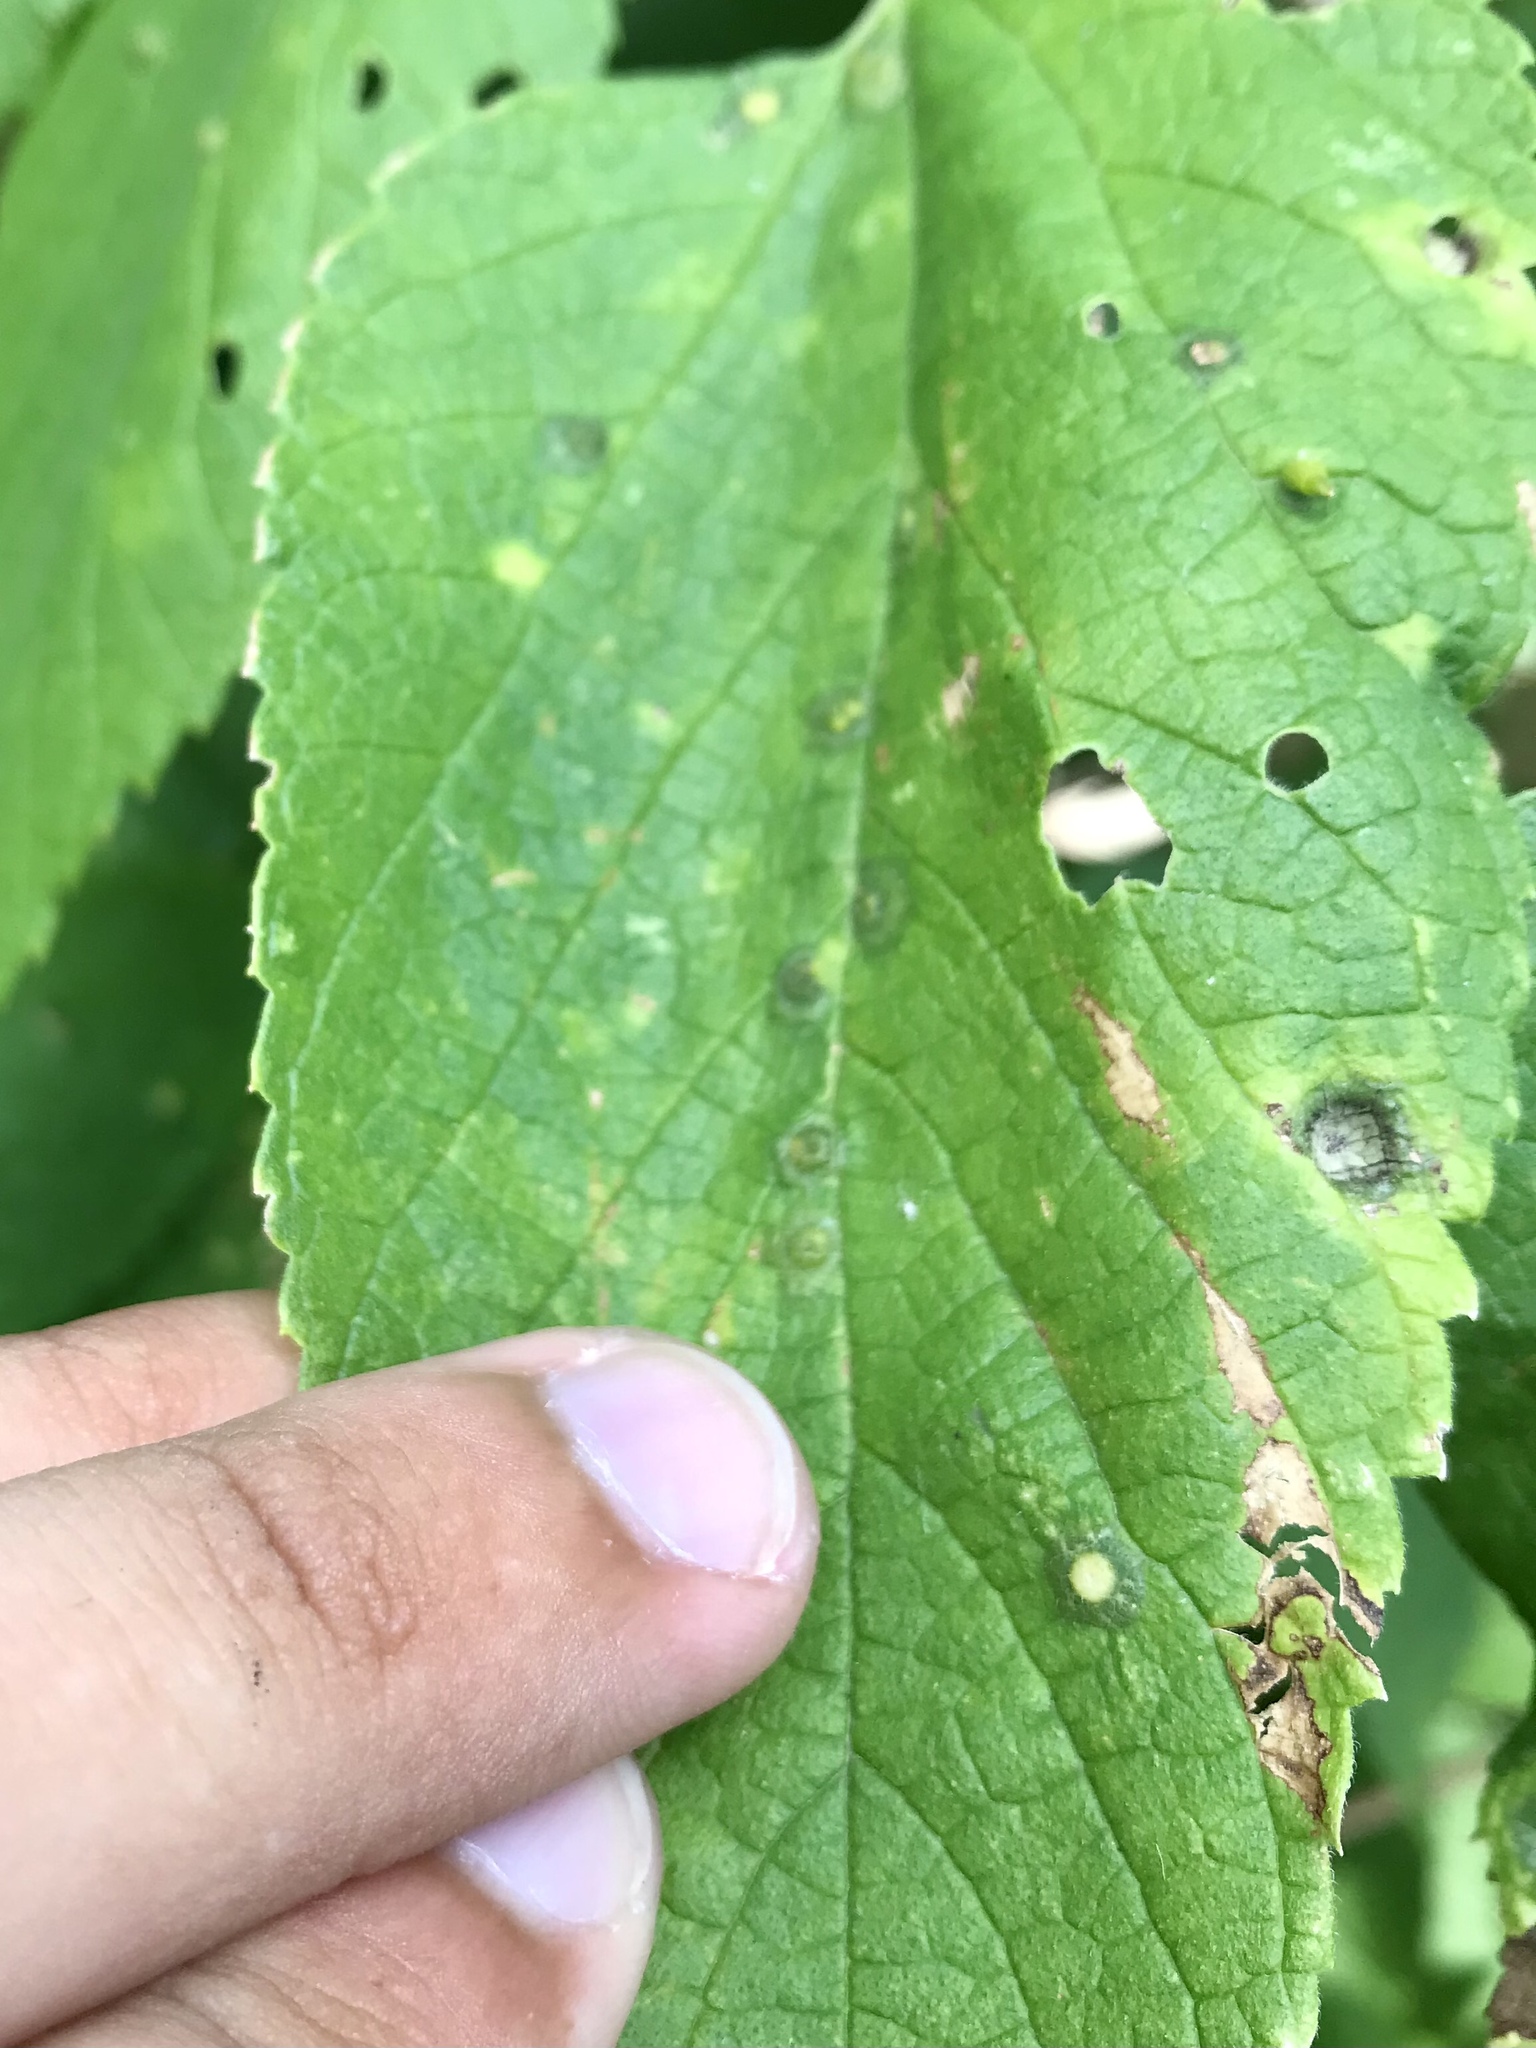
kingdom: Animalia
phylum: Arthropoda
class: Insecta
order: Diptera
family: Cecidomyiidae
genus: Celticecis
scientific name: Celticecis spiniformis
